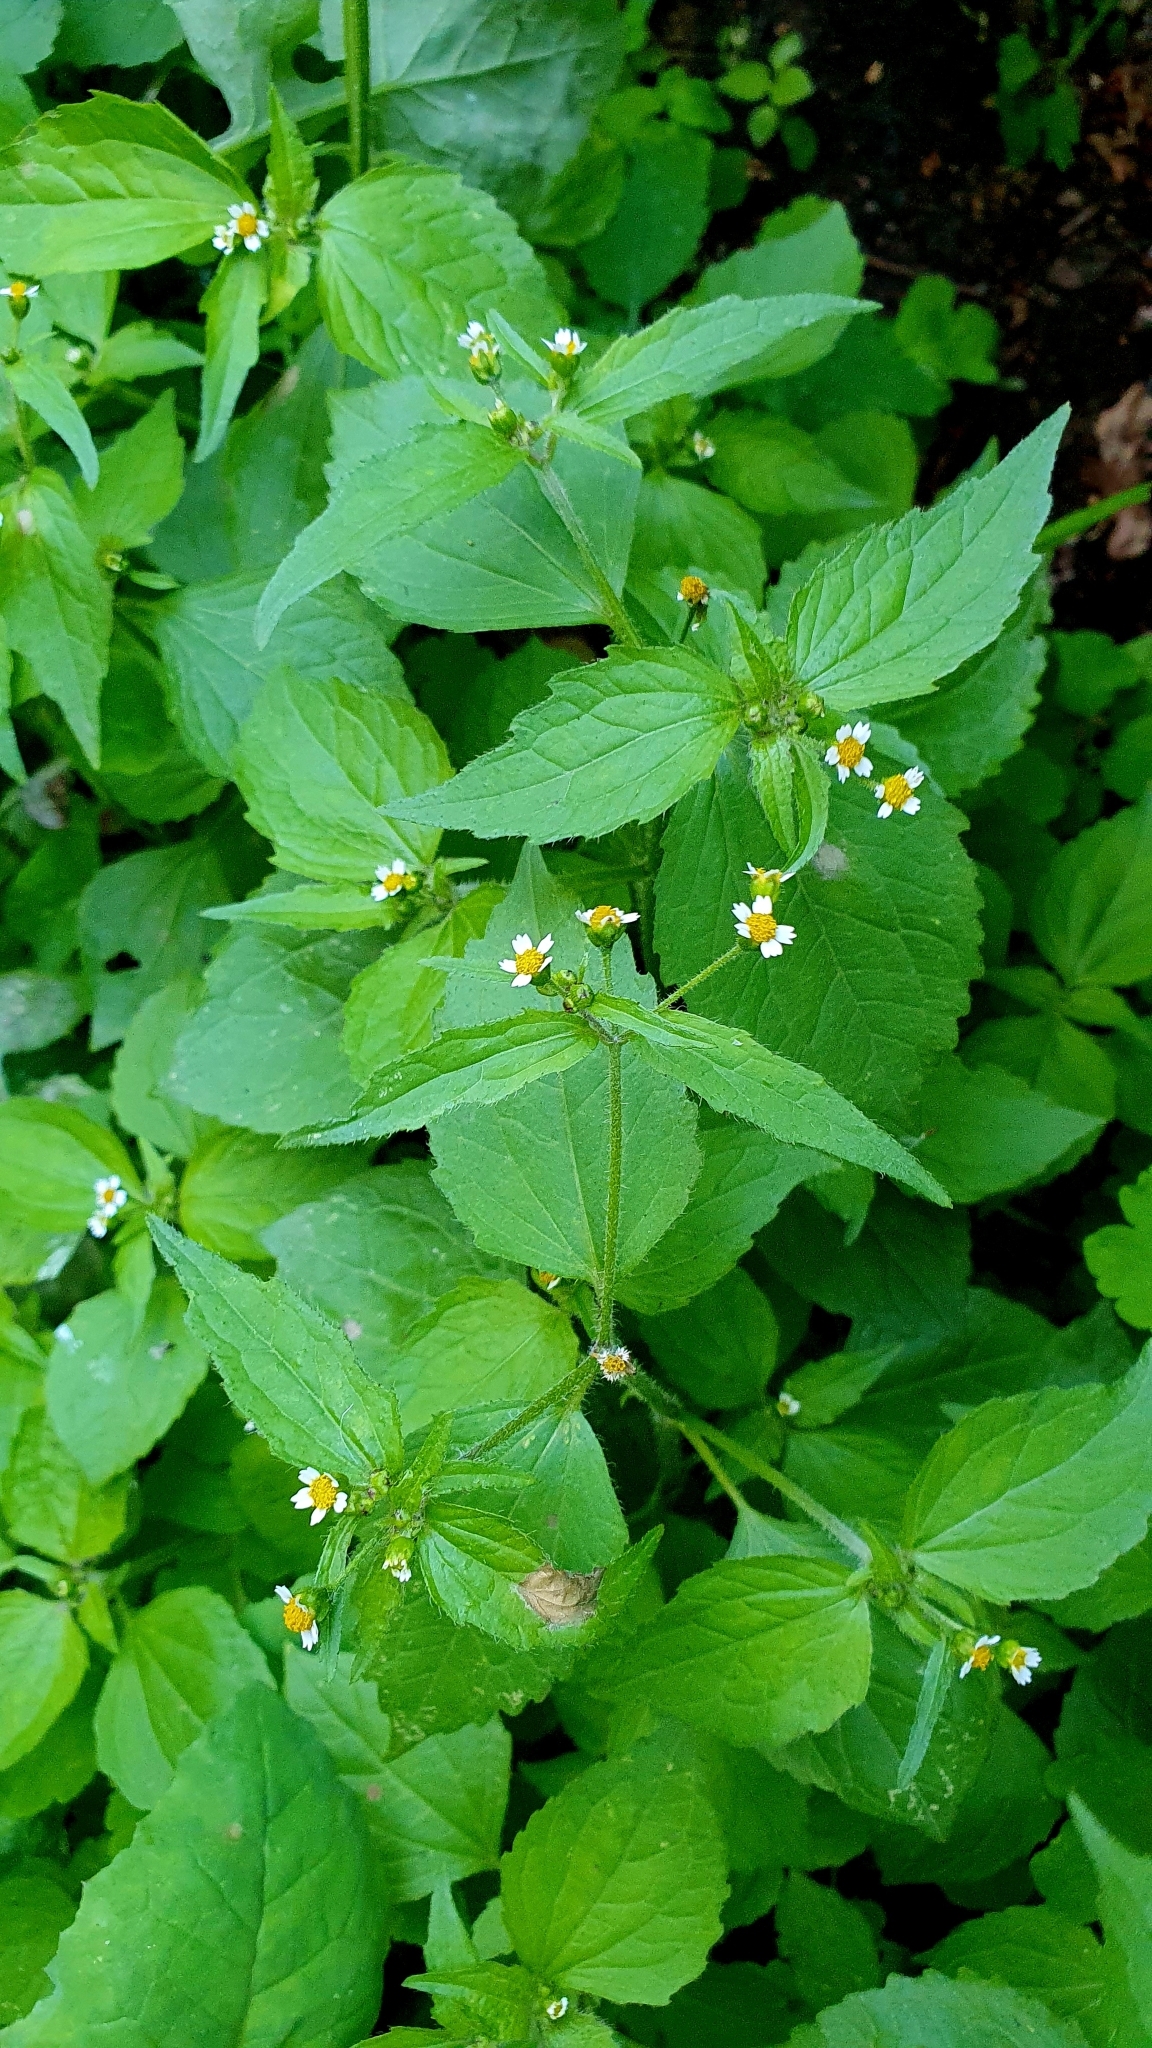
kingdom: Plantae
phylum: Tracheophyta
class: Magnoliopsida
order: Asterales
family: Asteraceae
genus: Galinsoga
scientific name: Galinsoga quadriradiata
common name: Shaggy soldier
